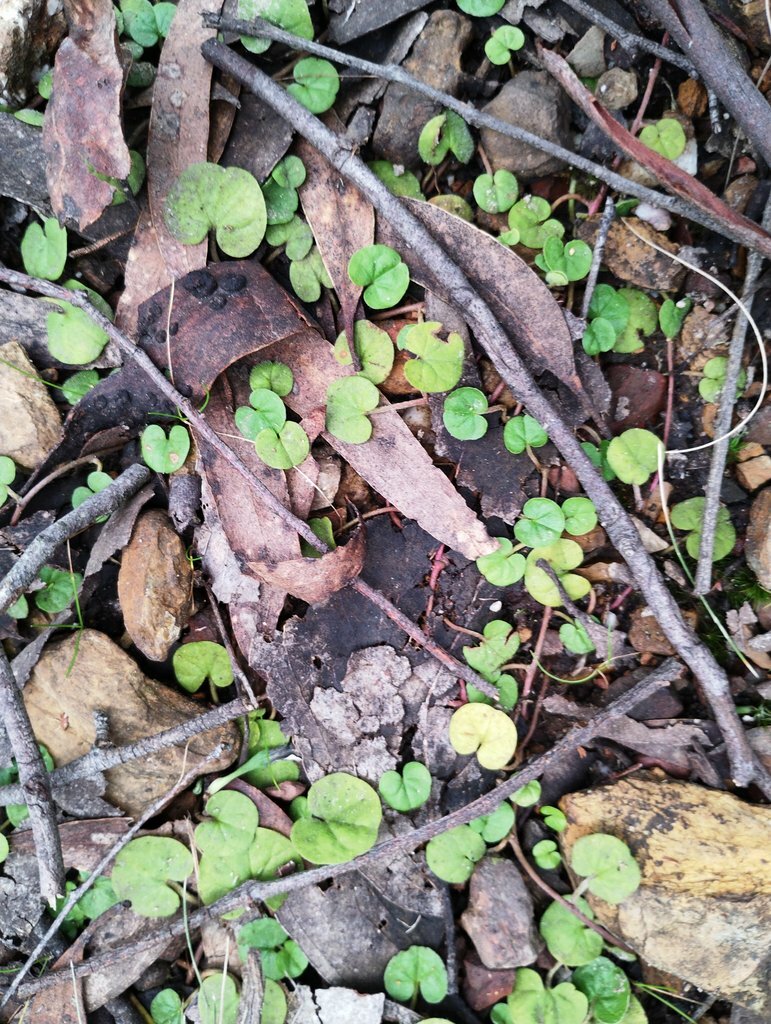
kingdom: Plantae
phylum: Tracheophyta
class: Magnoliopsida
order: Solanales
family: Convolvulaceae
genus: Dichondra
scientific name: Dichondra repens
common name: Kidneyweed
